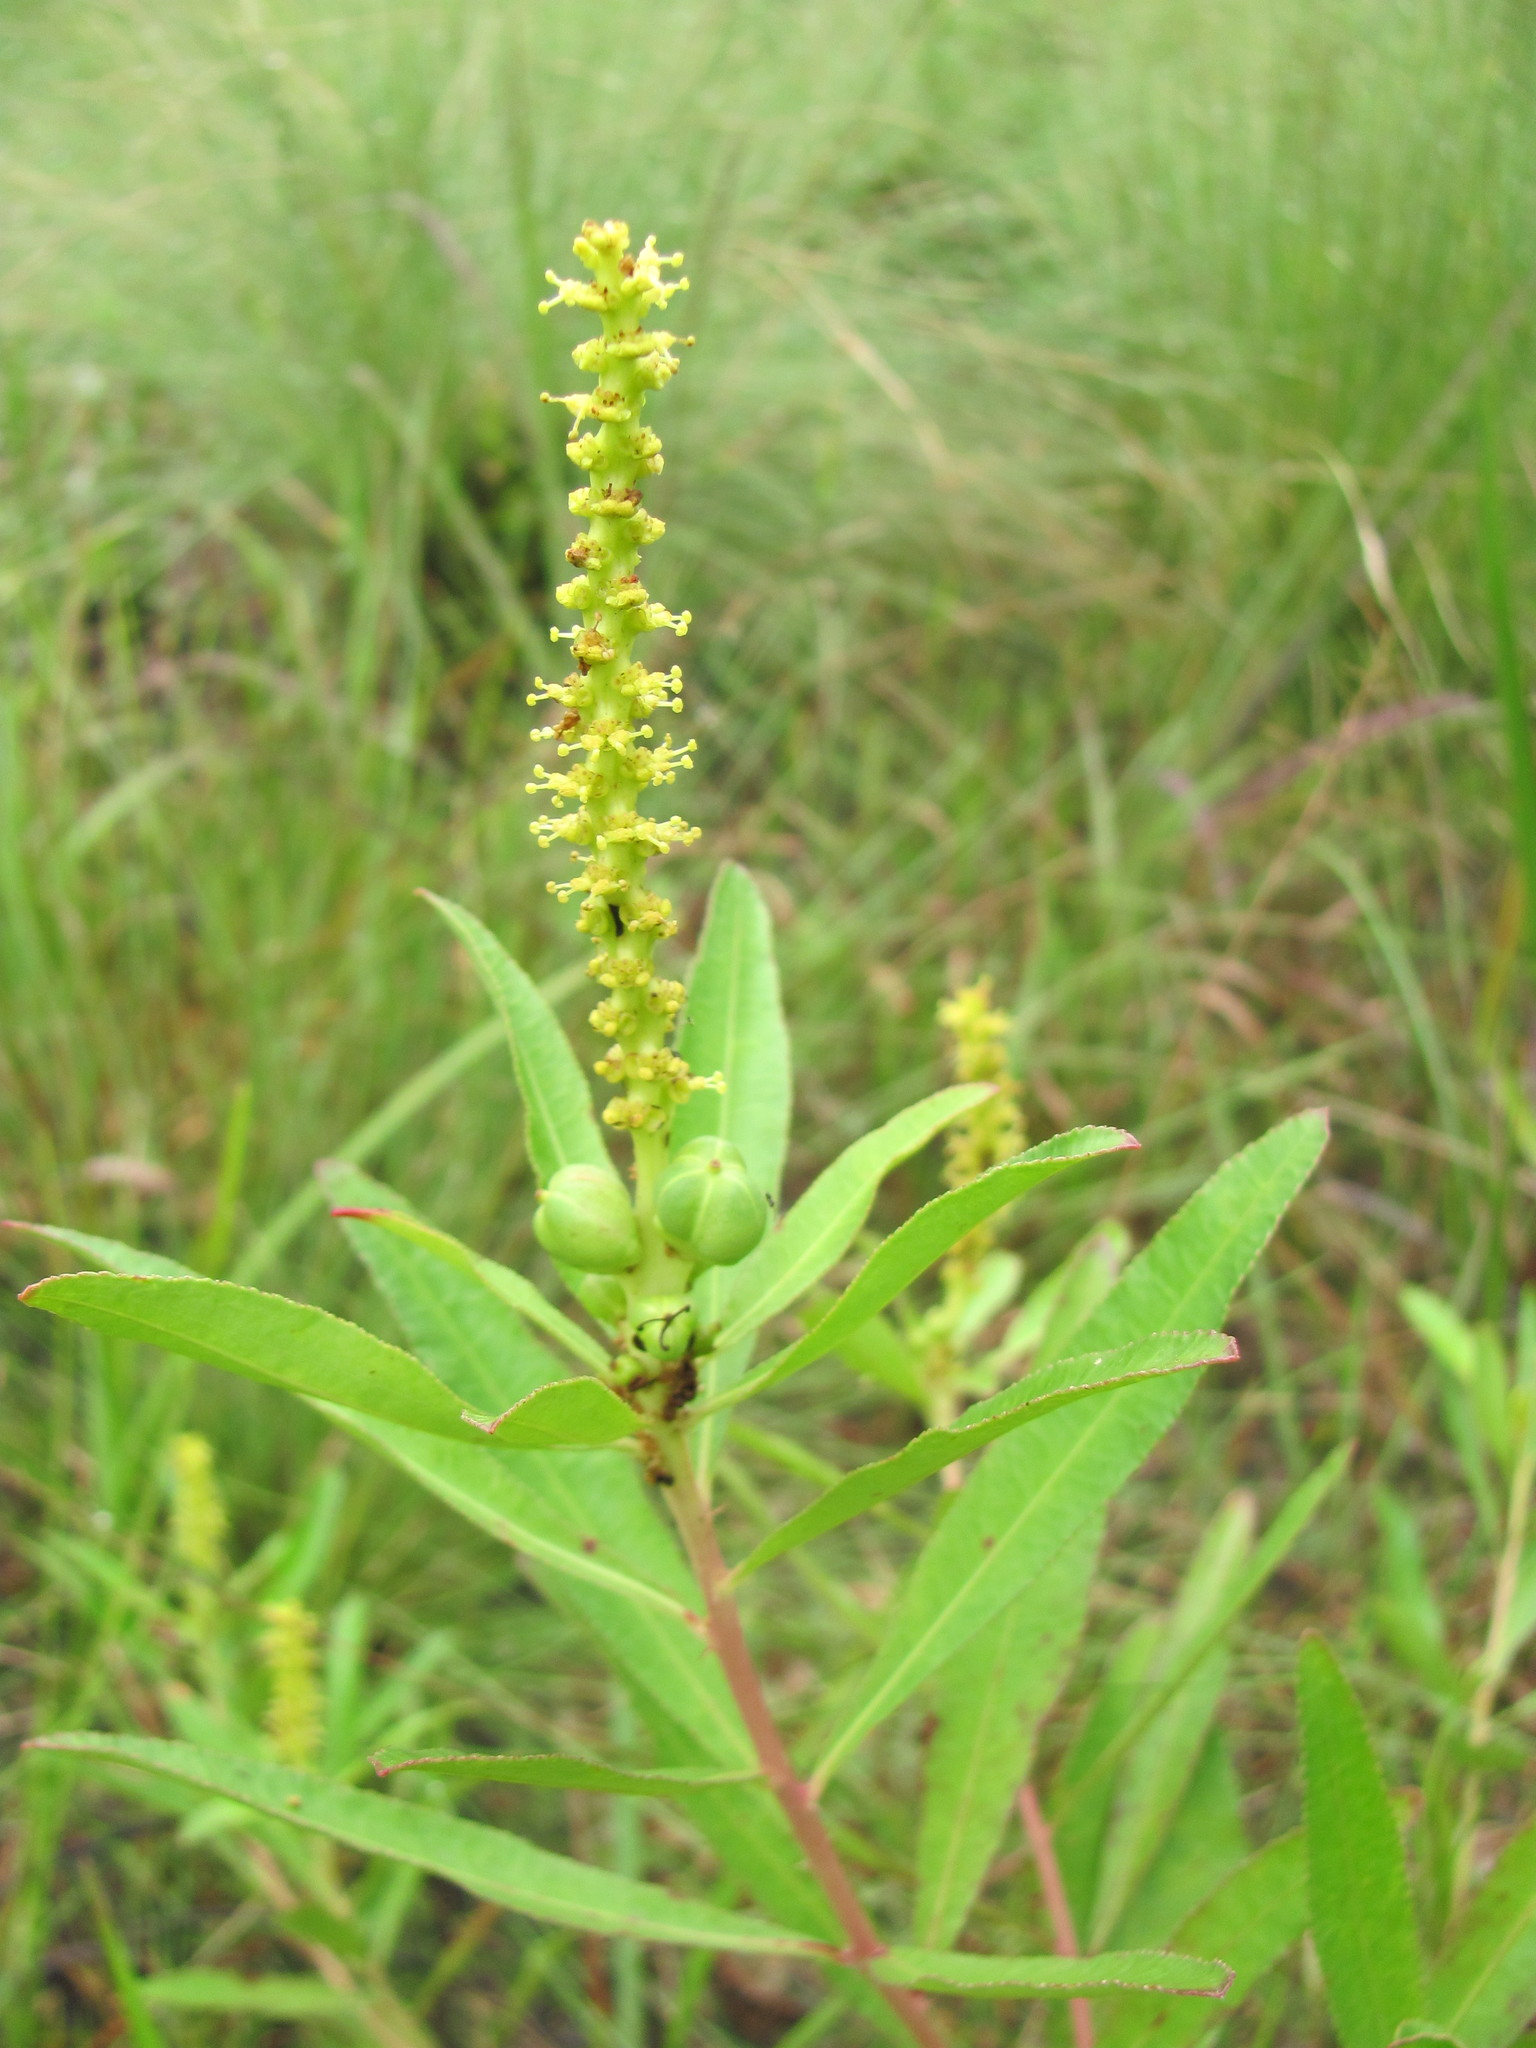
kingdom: Plantae
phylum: Tracheophyta
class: Magnoliopsida
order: Malpighiales
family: Euphorbiaceae
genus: Stillingia
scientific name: Stillingia sylvatica
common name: Queen's-delight
